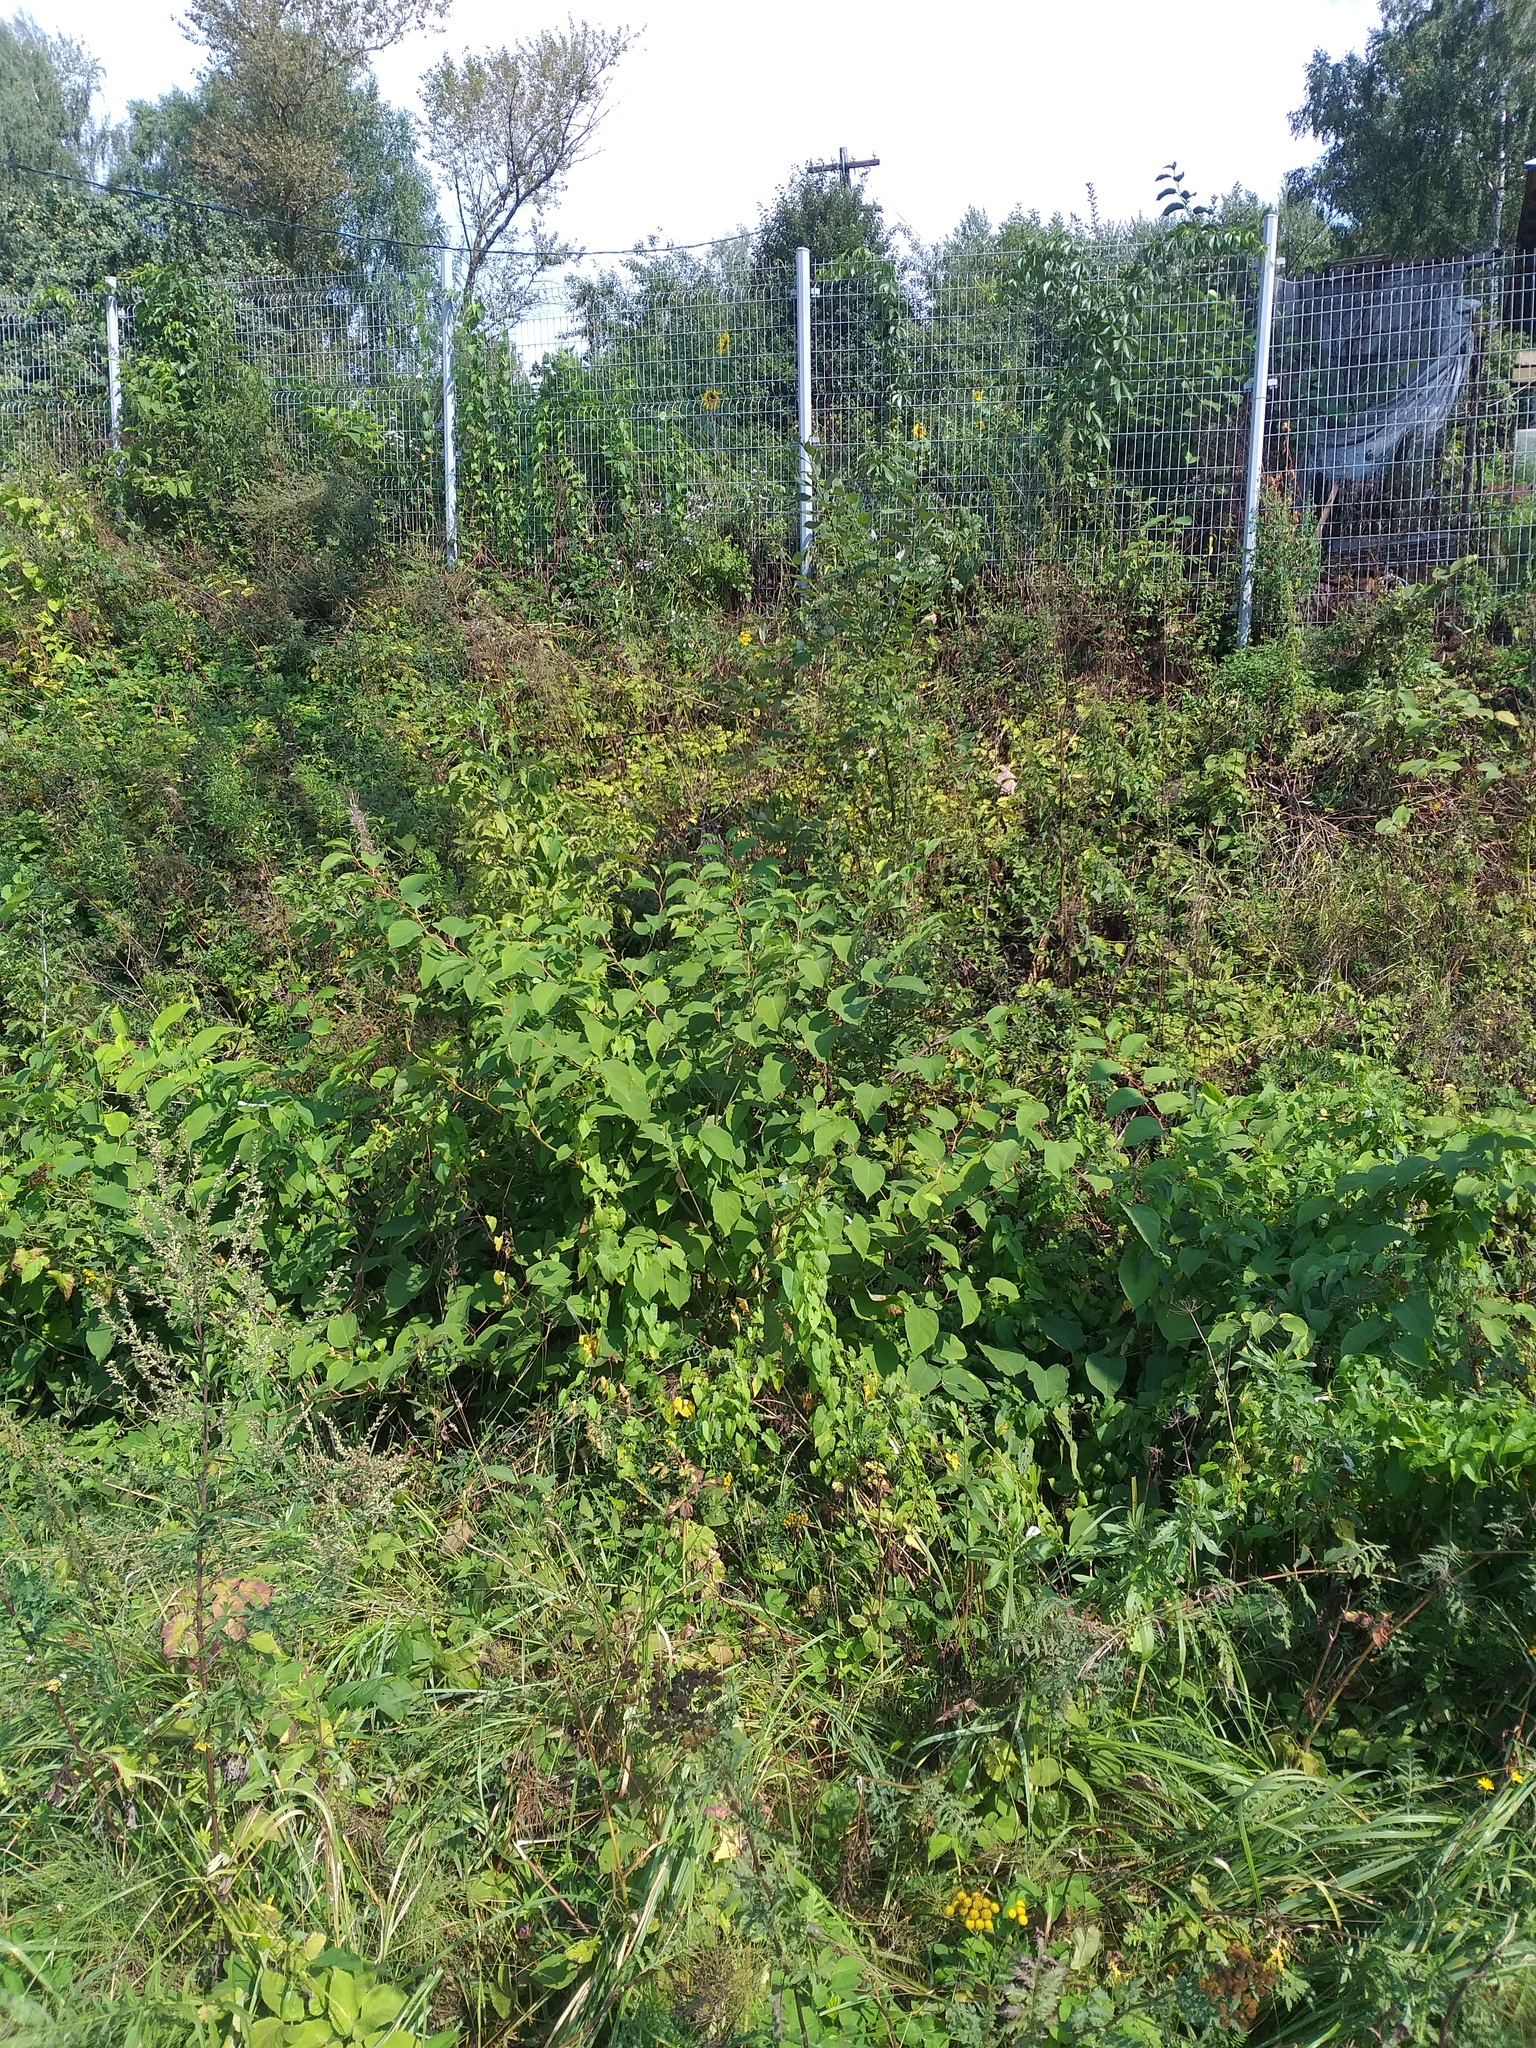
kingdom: Plantae
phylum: Tracheophyta
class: Magnoliopsida
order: Caryophyllales
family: Polygonaceae
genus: Reynoutria
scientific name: Reynoutria bohemica
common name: Bohemian knotweed
